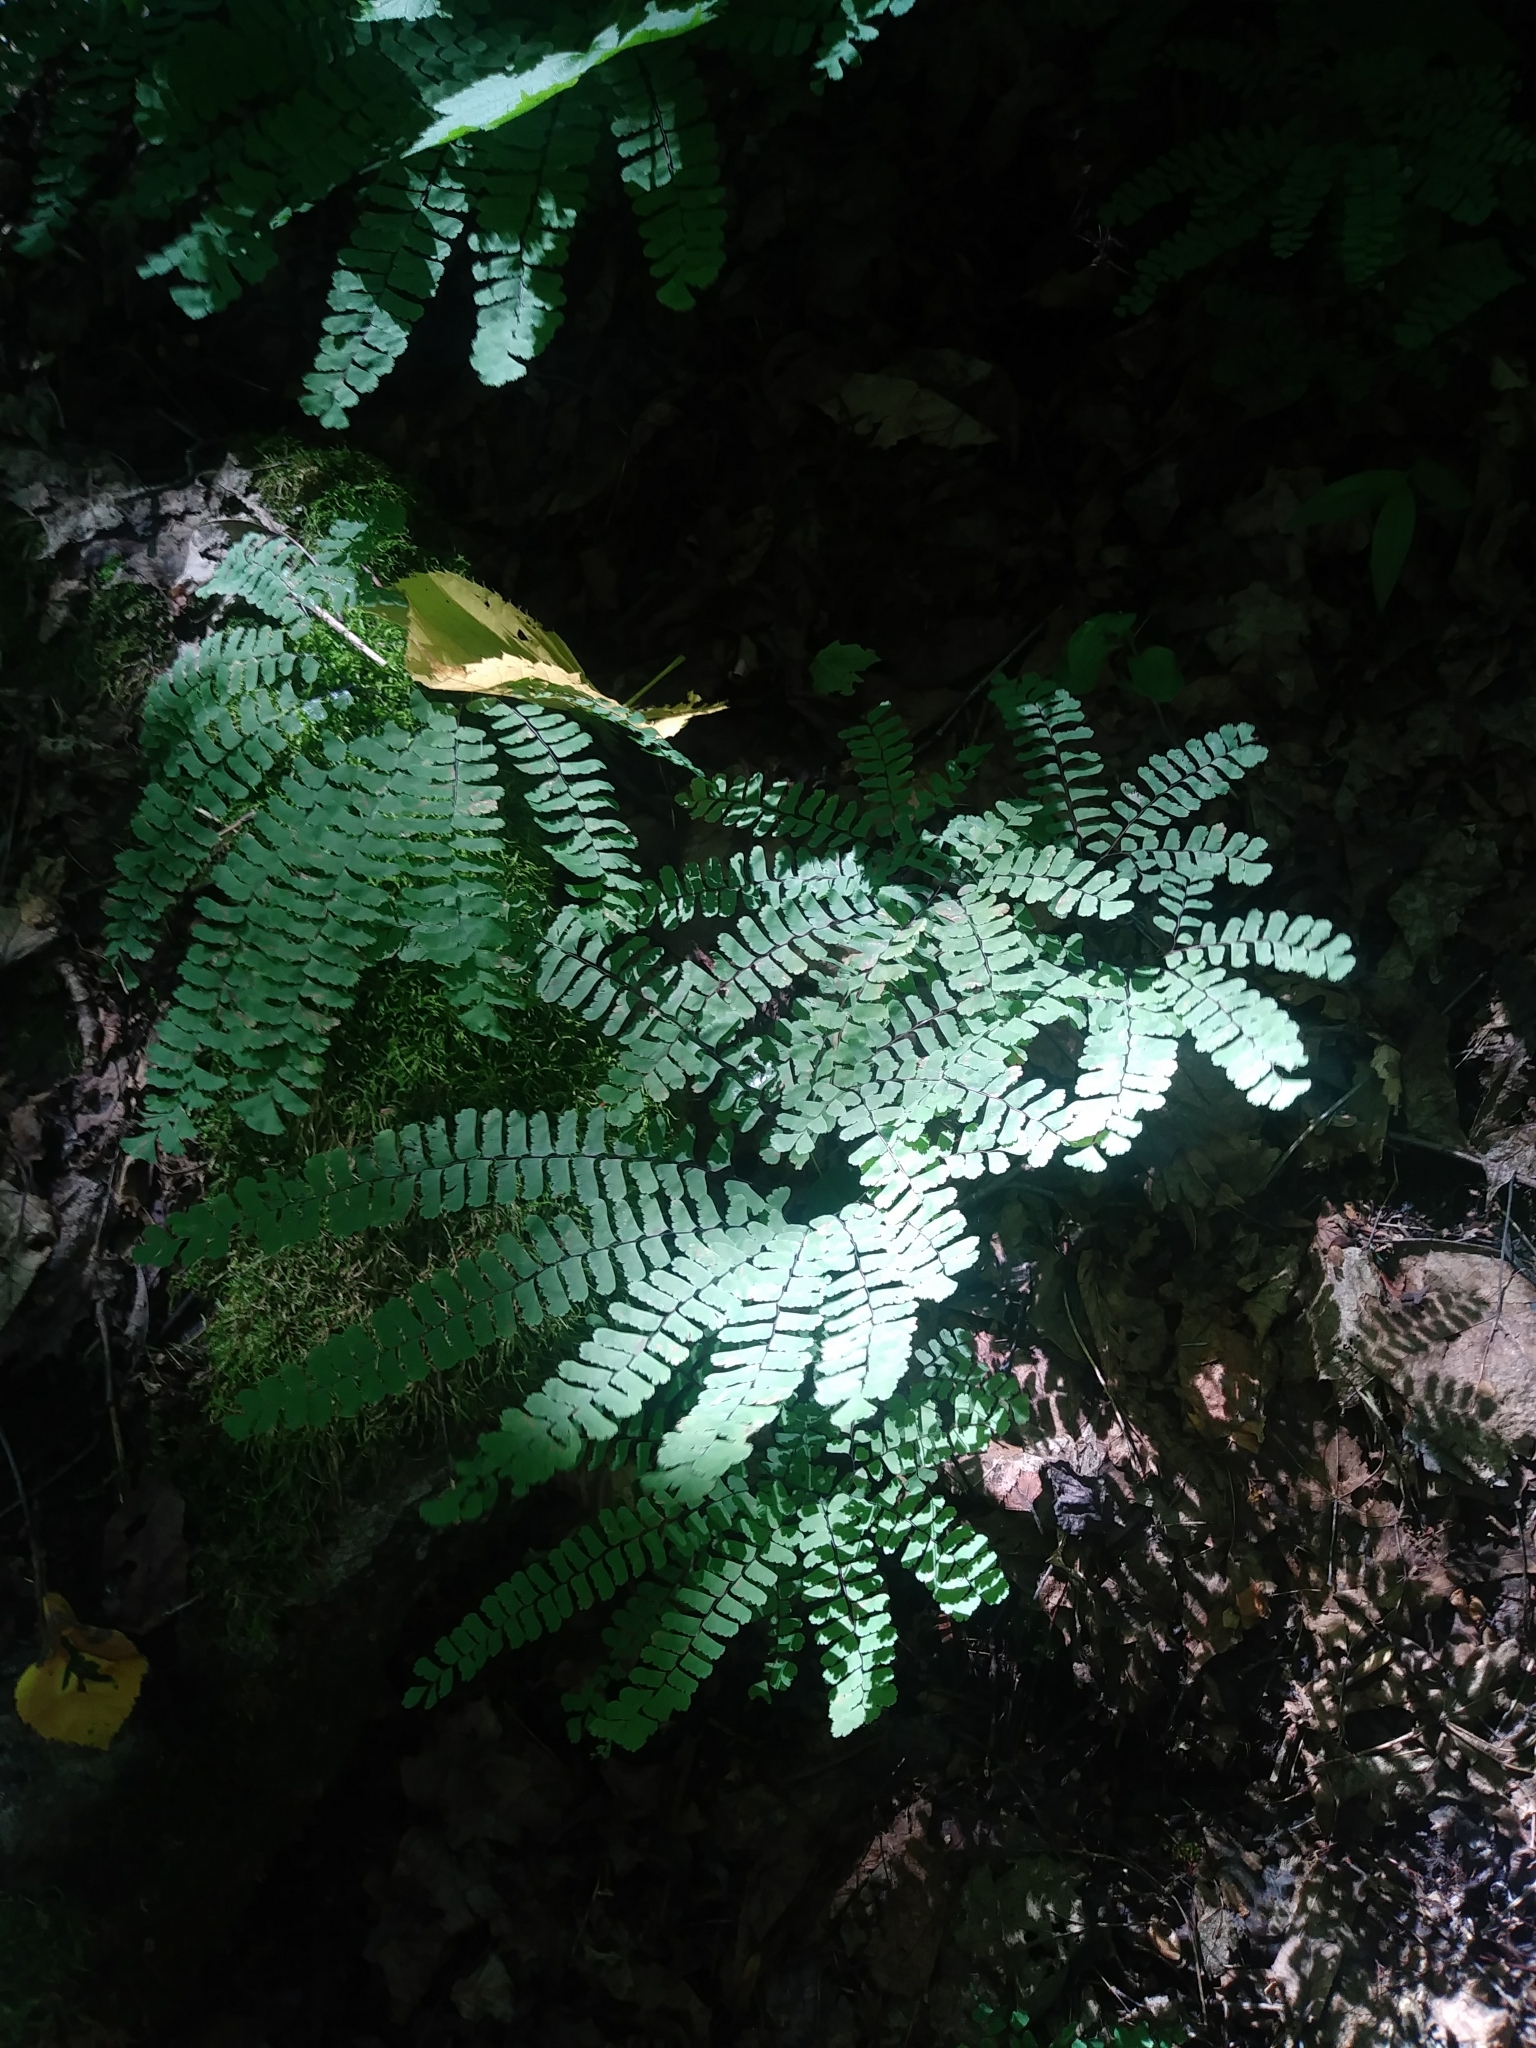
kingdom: Plantae
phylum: Tracheophyta
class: Polypodiopsida
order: Polypodiales
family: Pteridaceae
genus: Adiantum
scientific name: Adiantum pedatum
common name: Five-finger fern
